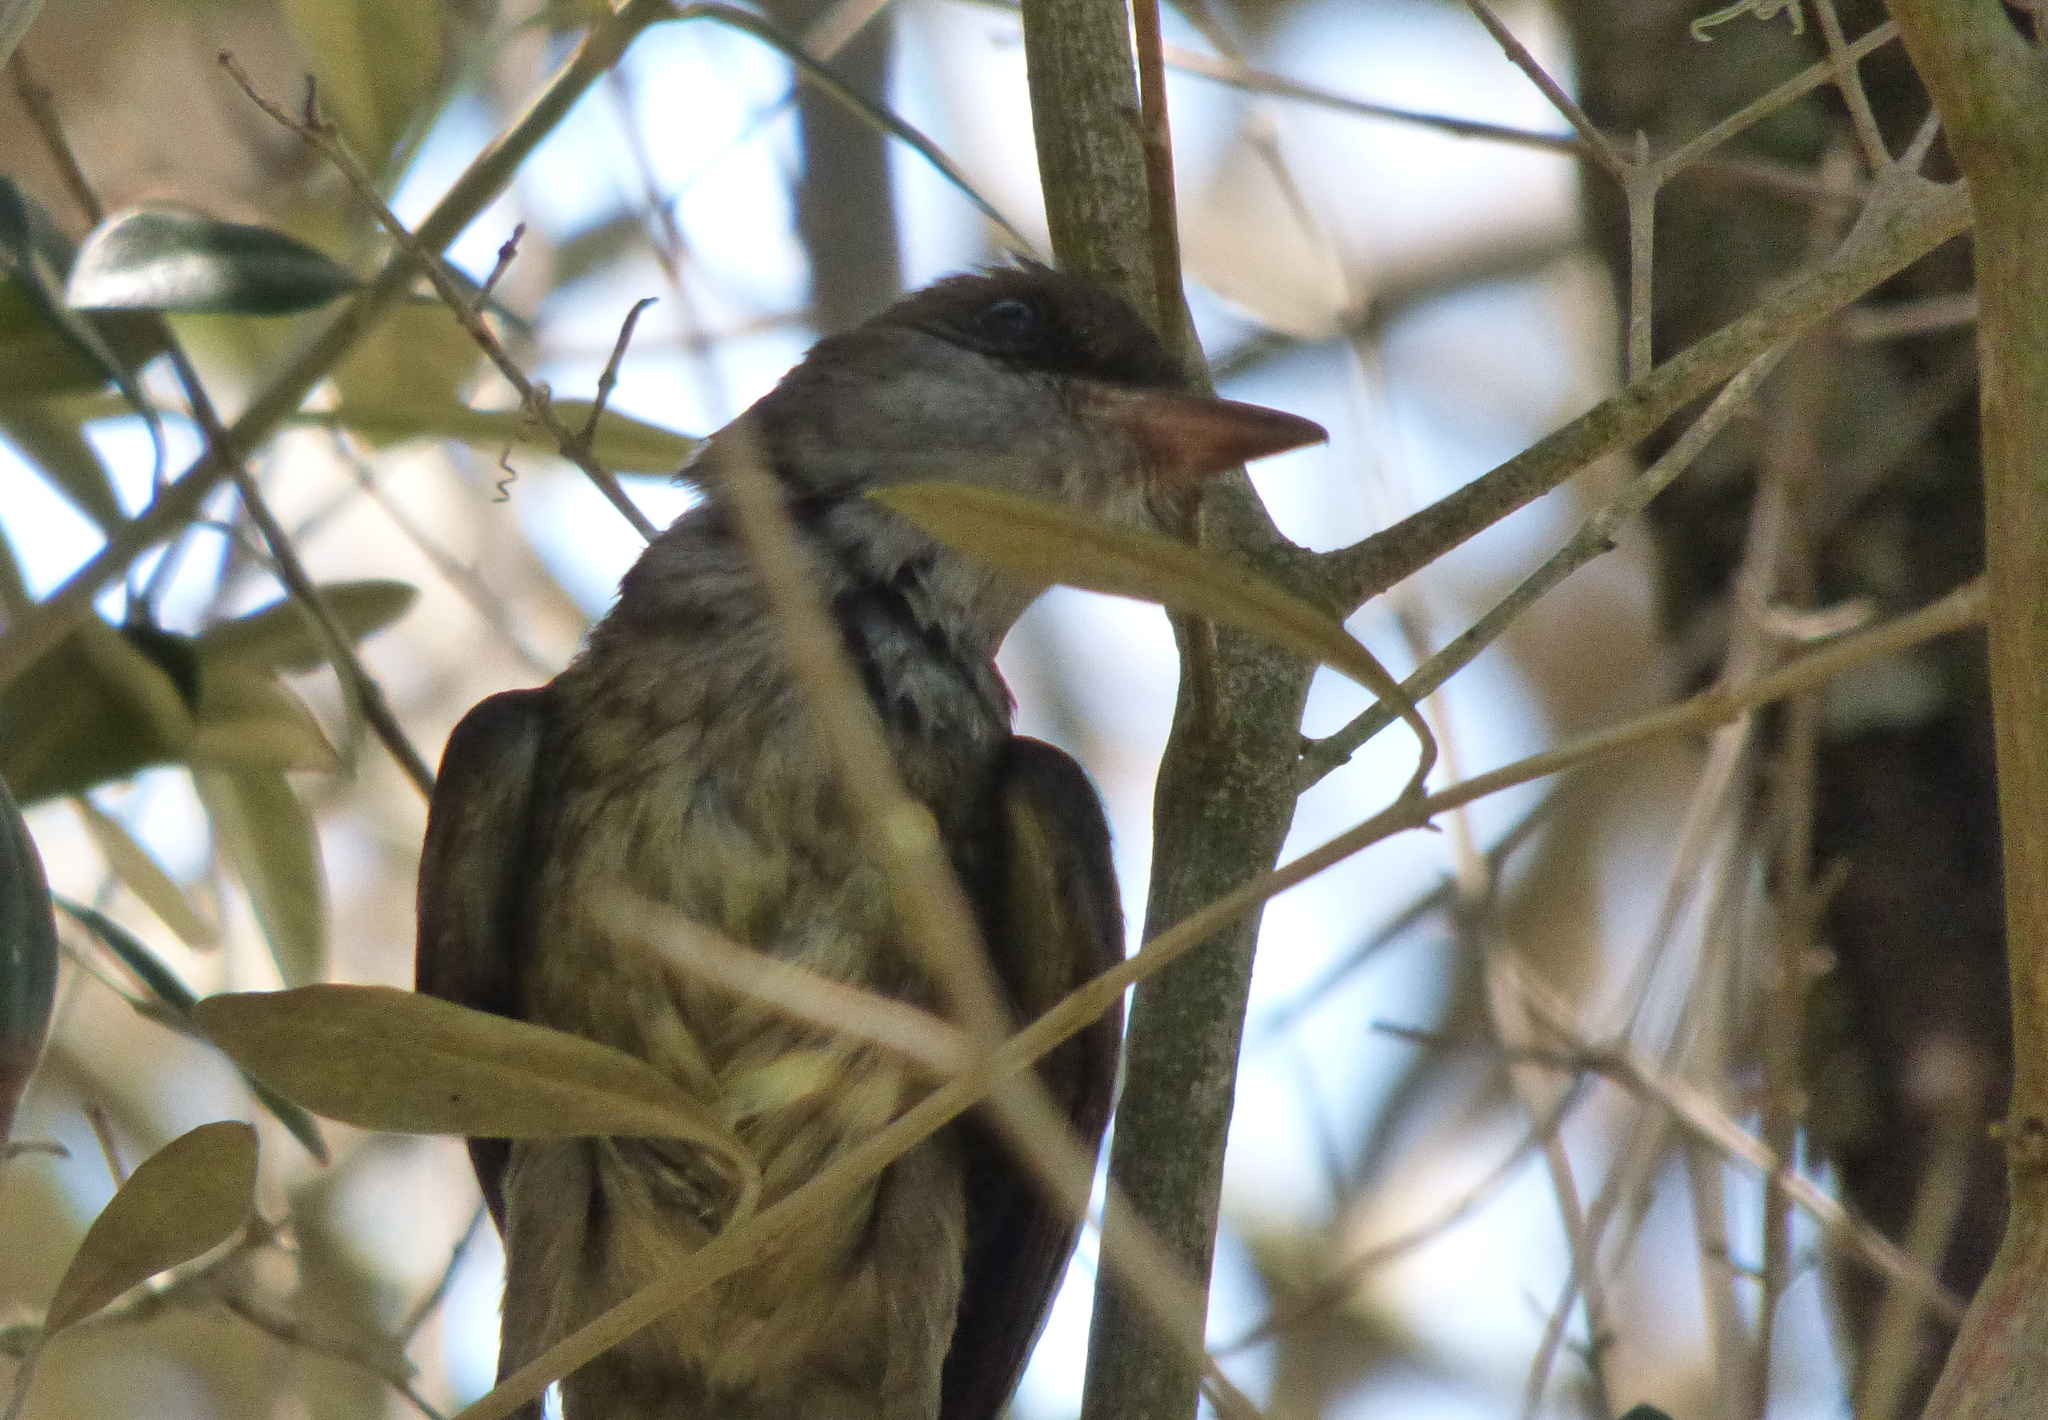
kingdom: Animalia
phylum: Chordata
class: Aves
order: Passeriformes
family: Tyrannidae
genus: Myiarchus
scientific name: Myiarchus swainsoni
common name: Swainson's flycatcher
